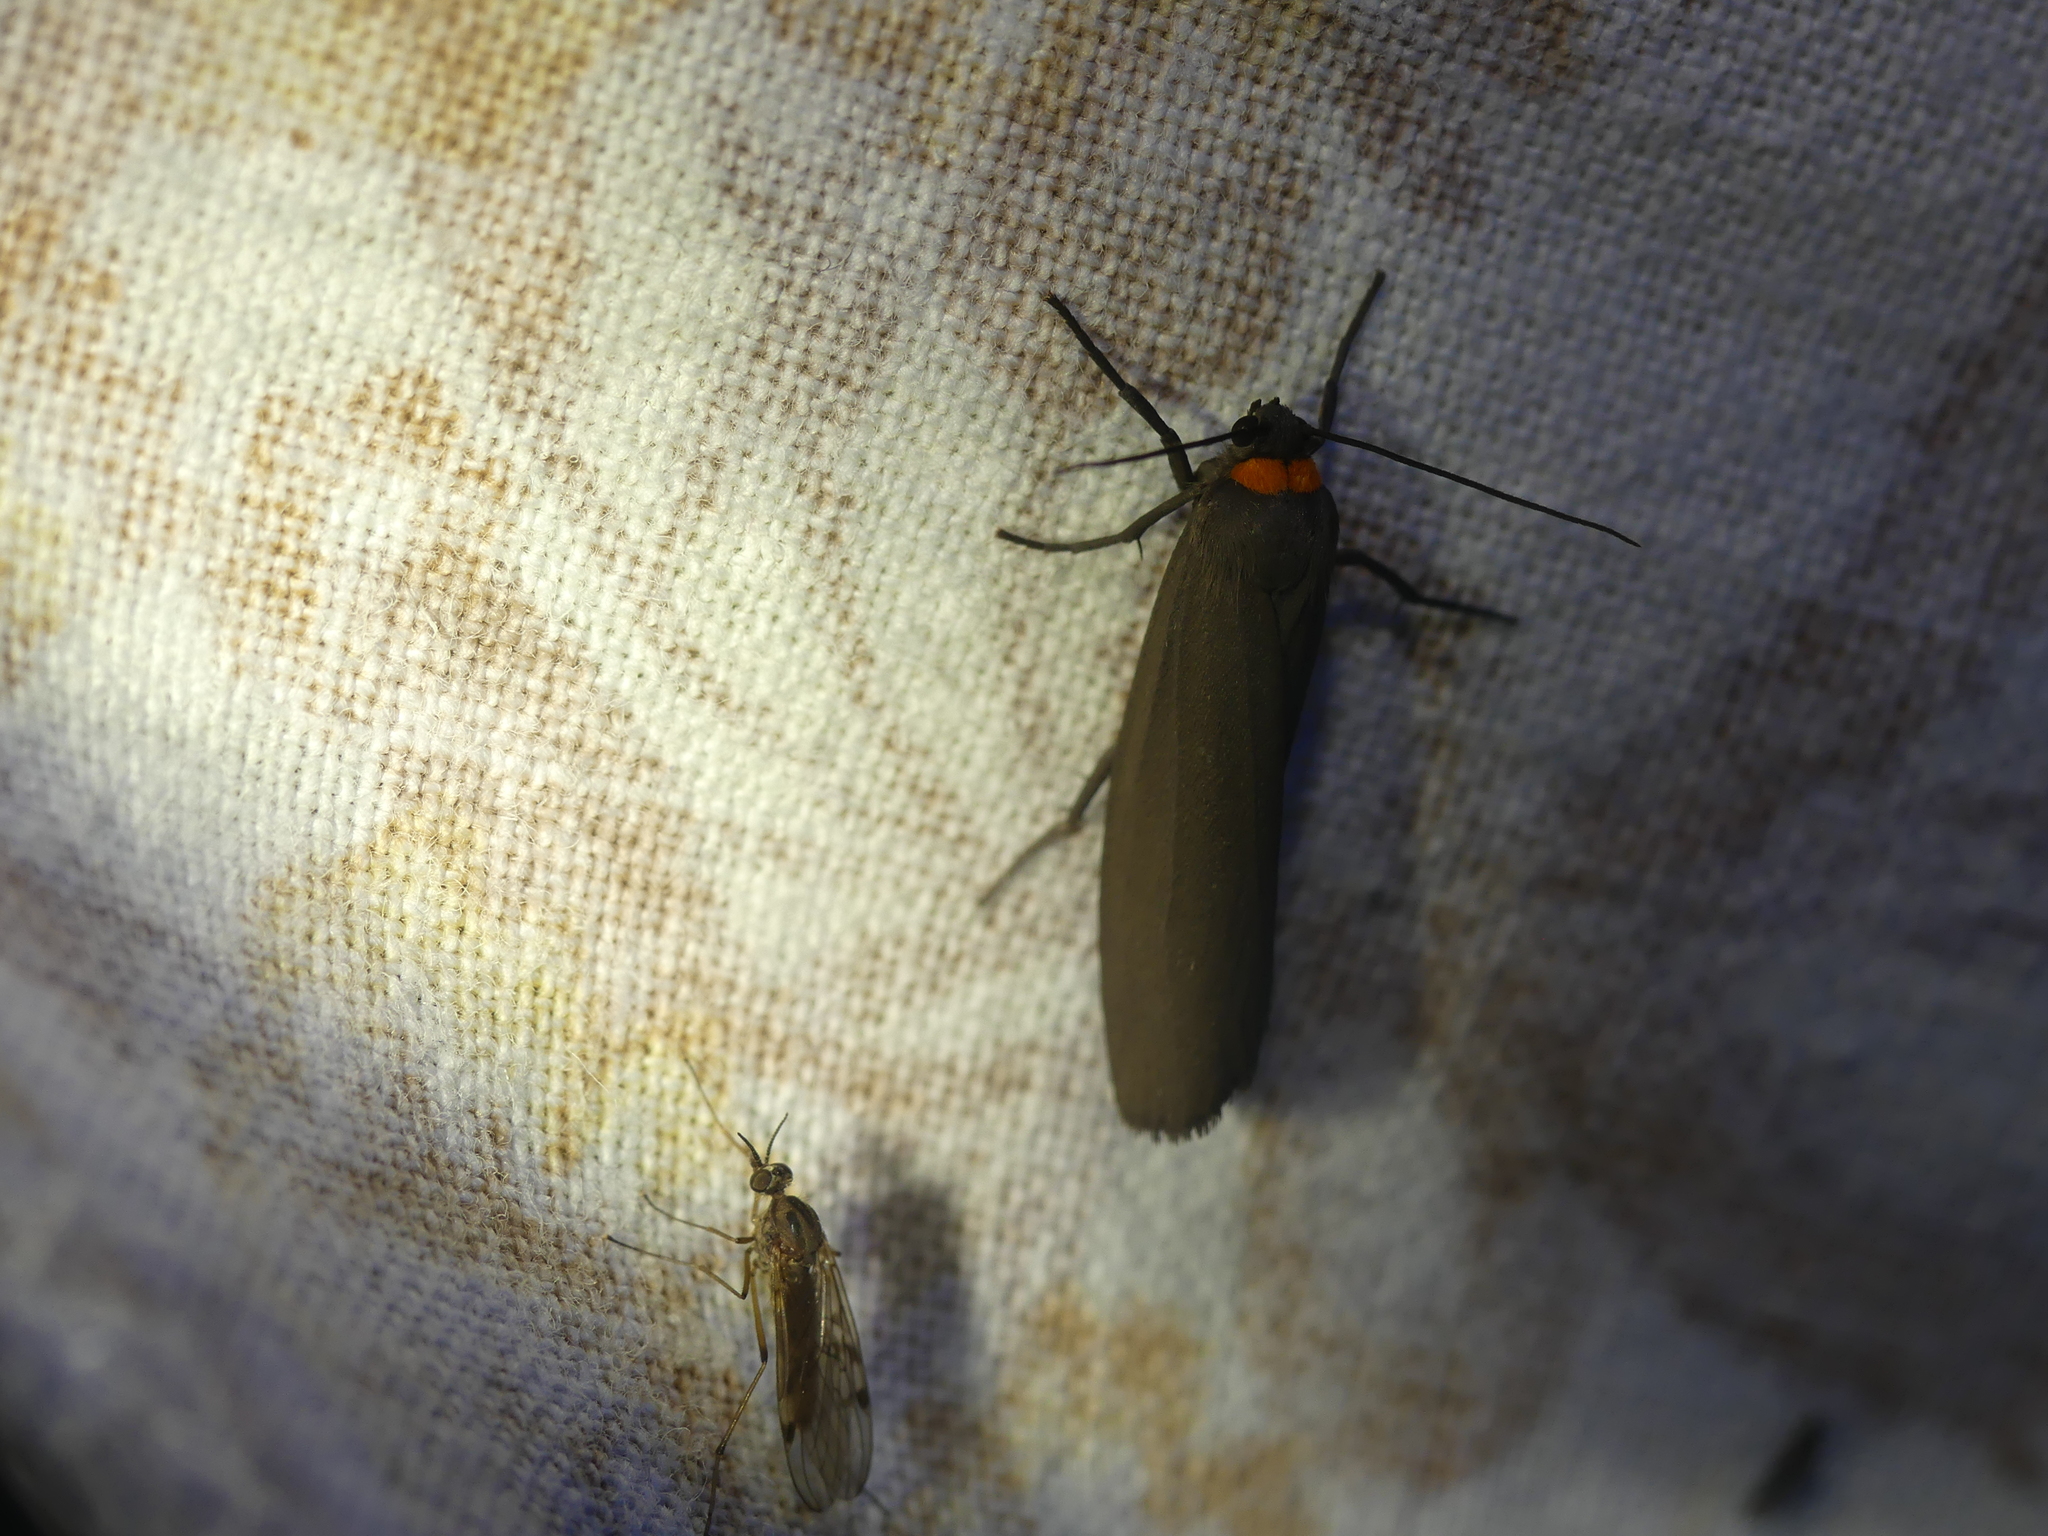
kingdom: Animalia
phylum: Arthropoda
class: Insecta
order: Lepidoptera
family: Erebidae
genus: Atolmis
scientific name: Atolmis rubricollis
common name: Red-necked footman
